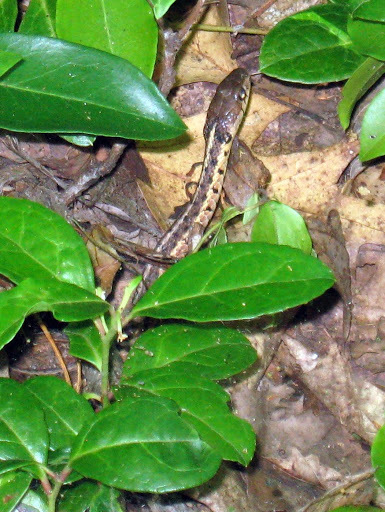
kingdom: Animalia
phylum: Chordata
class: Squamata
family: Colubridae
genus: Thamnophis
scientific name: Thamnophis sirtalis
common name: Common garter snake
